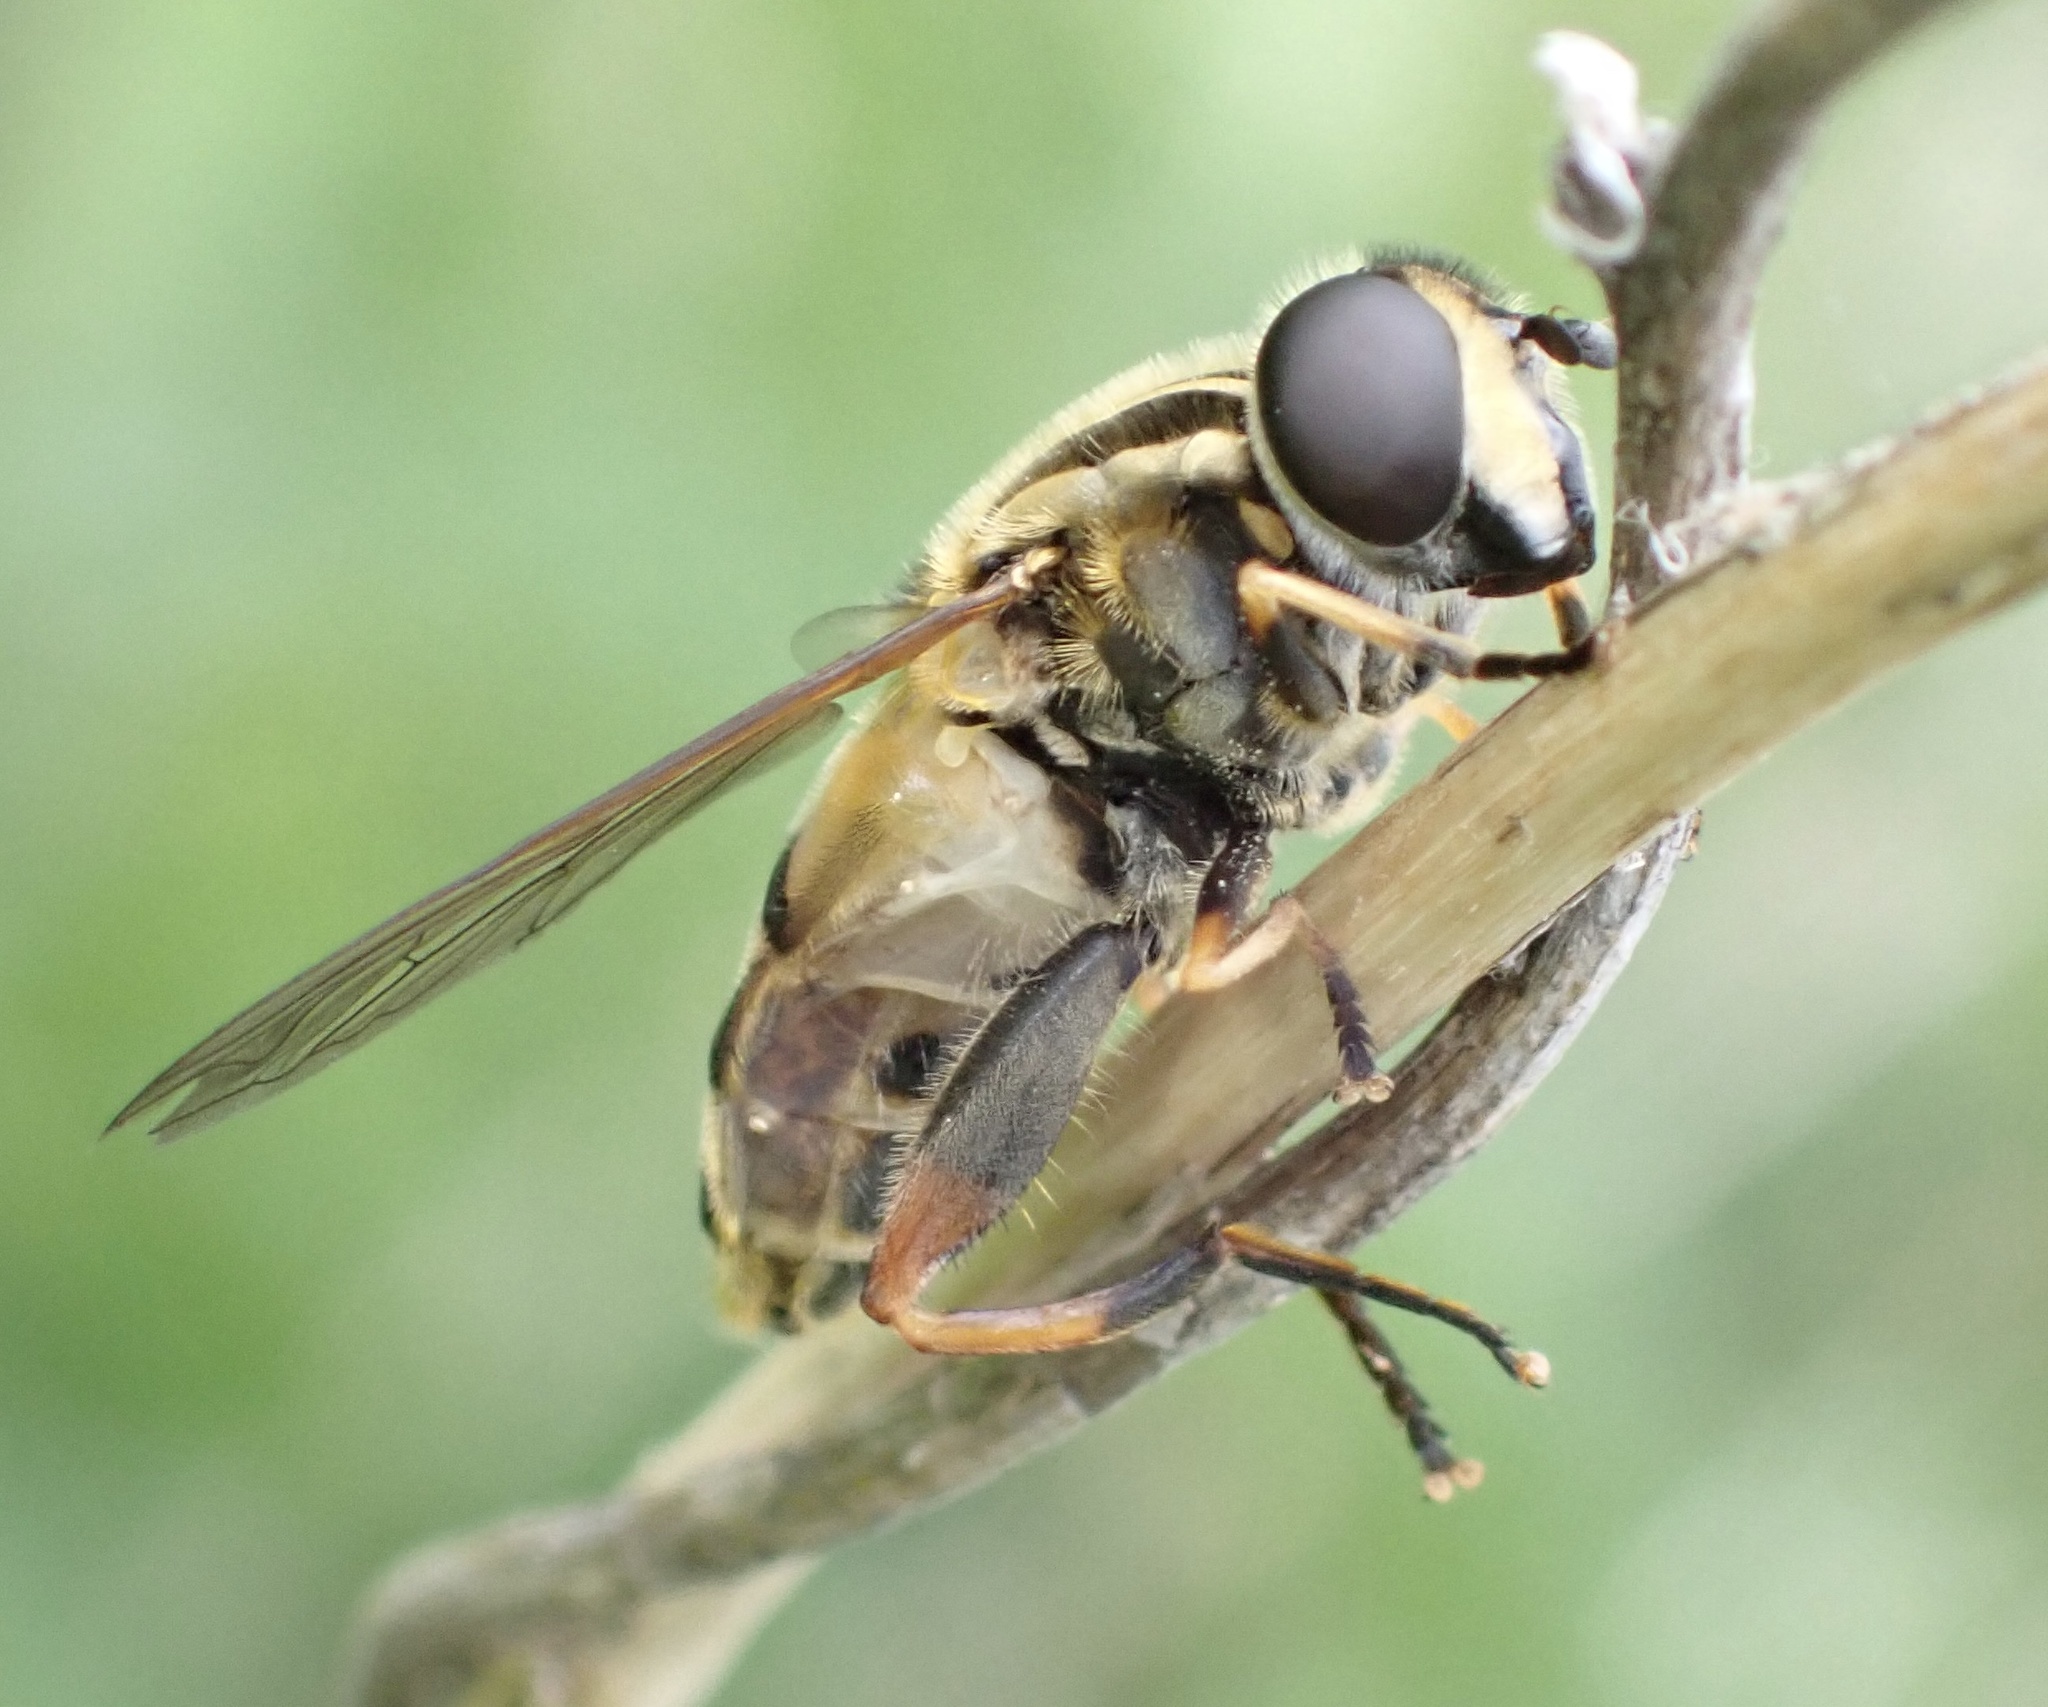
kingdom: Animalia
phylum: Arthropoda
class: Insecta
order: Diptera
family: Syrphidae
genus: Helophilus
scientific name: Helophilus pendulus
